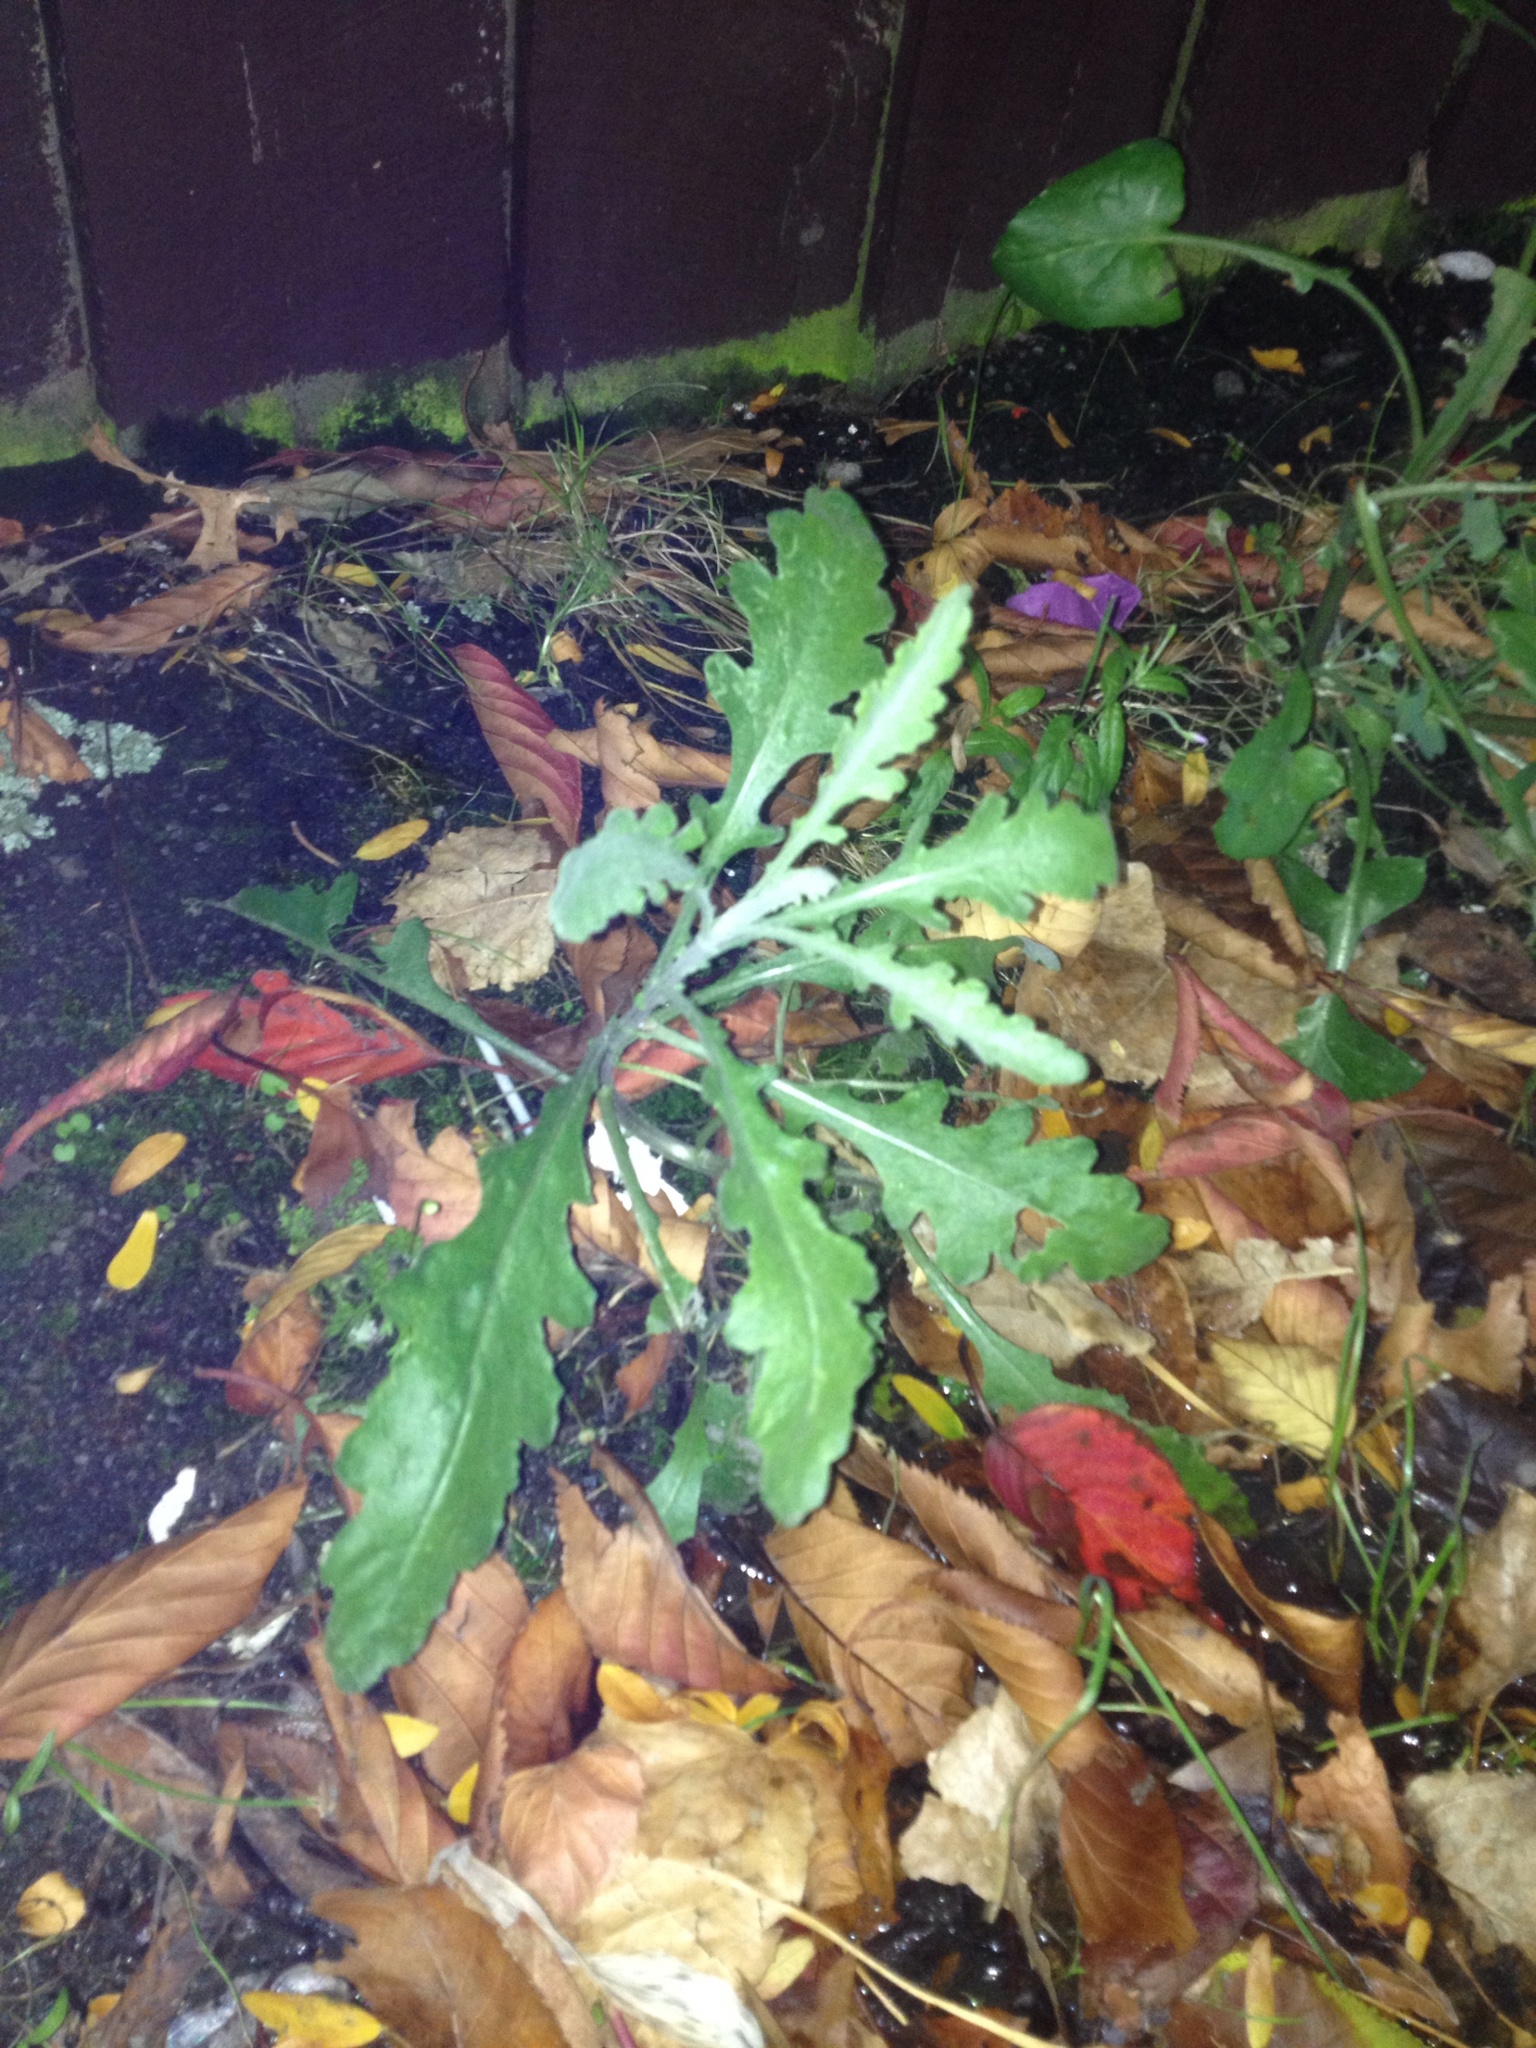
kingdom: Plantae
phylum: Tracheophyta
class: Magnoliopsida
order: Asterales
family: Asteraceae
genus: Senecio
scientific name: Senecio glomeratus
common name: Cutleaf burnweed
